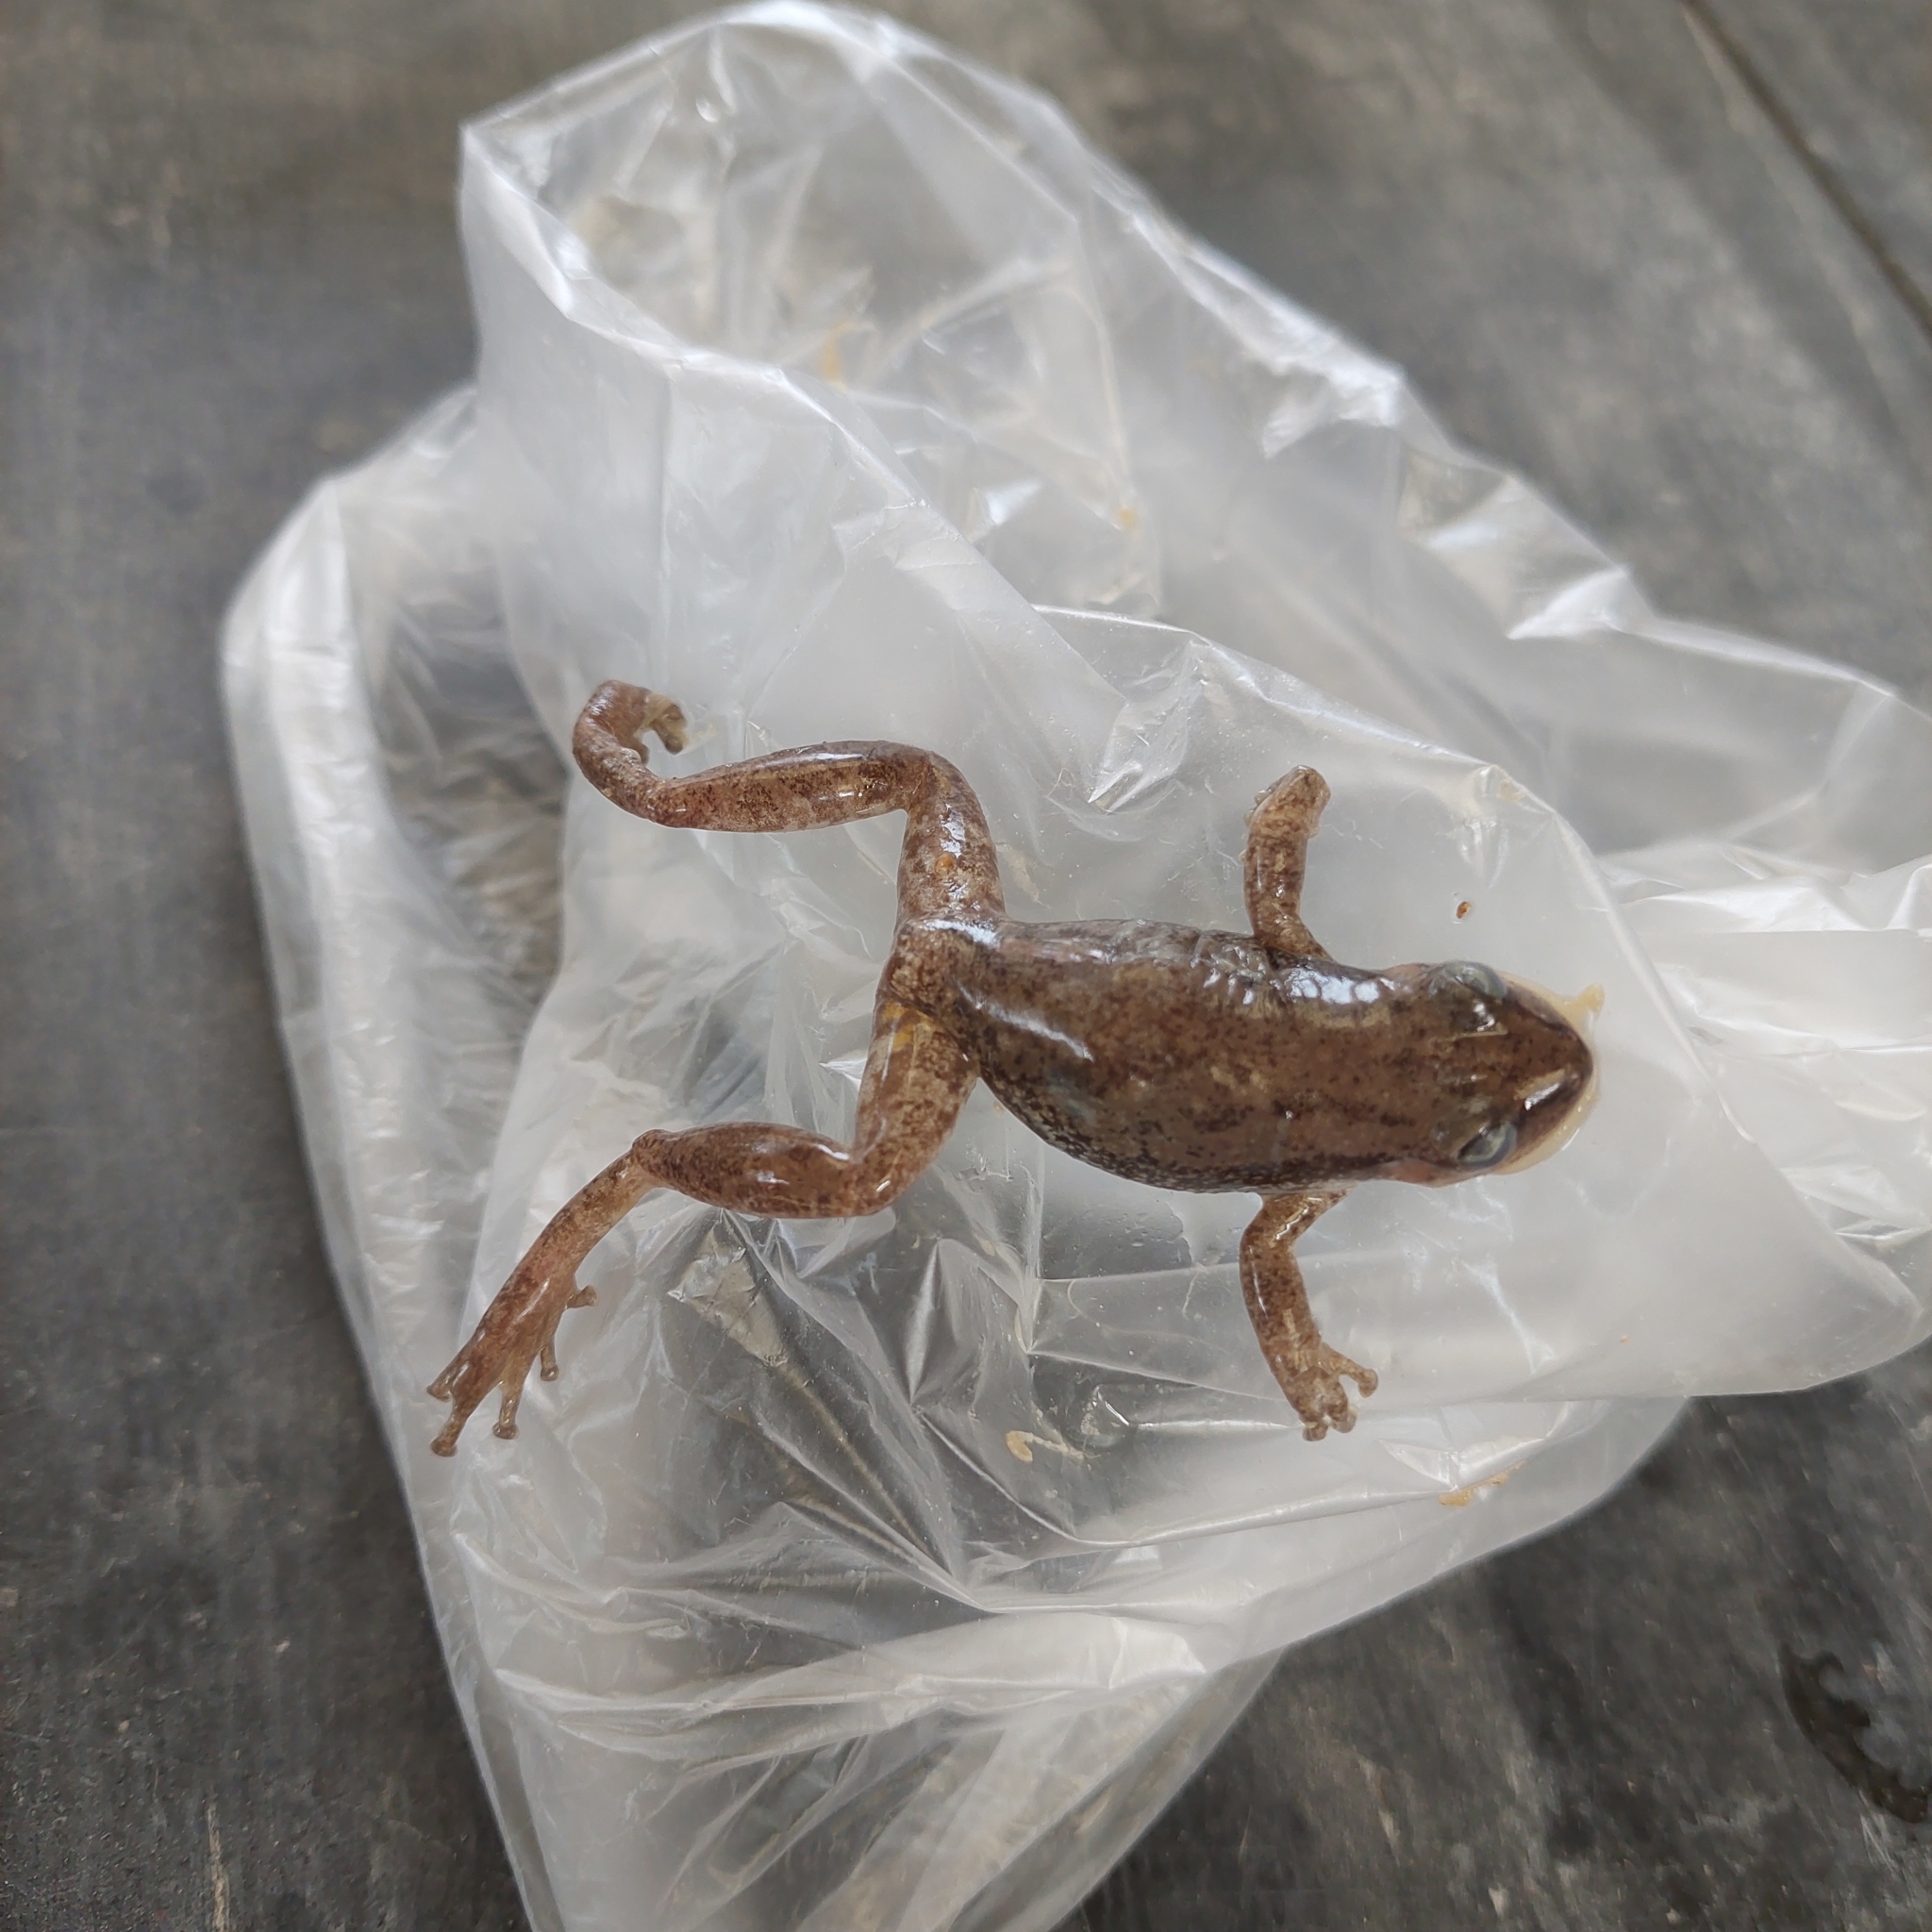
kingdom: Animalia
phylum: Chordata
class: Amphibia
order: Anura
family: Hylidae
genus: Scinax
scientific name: Scinax nasicus
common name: Lesser snouted treefrog
